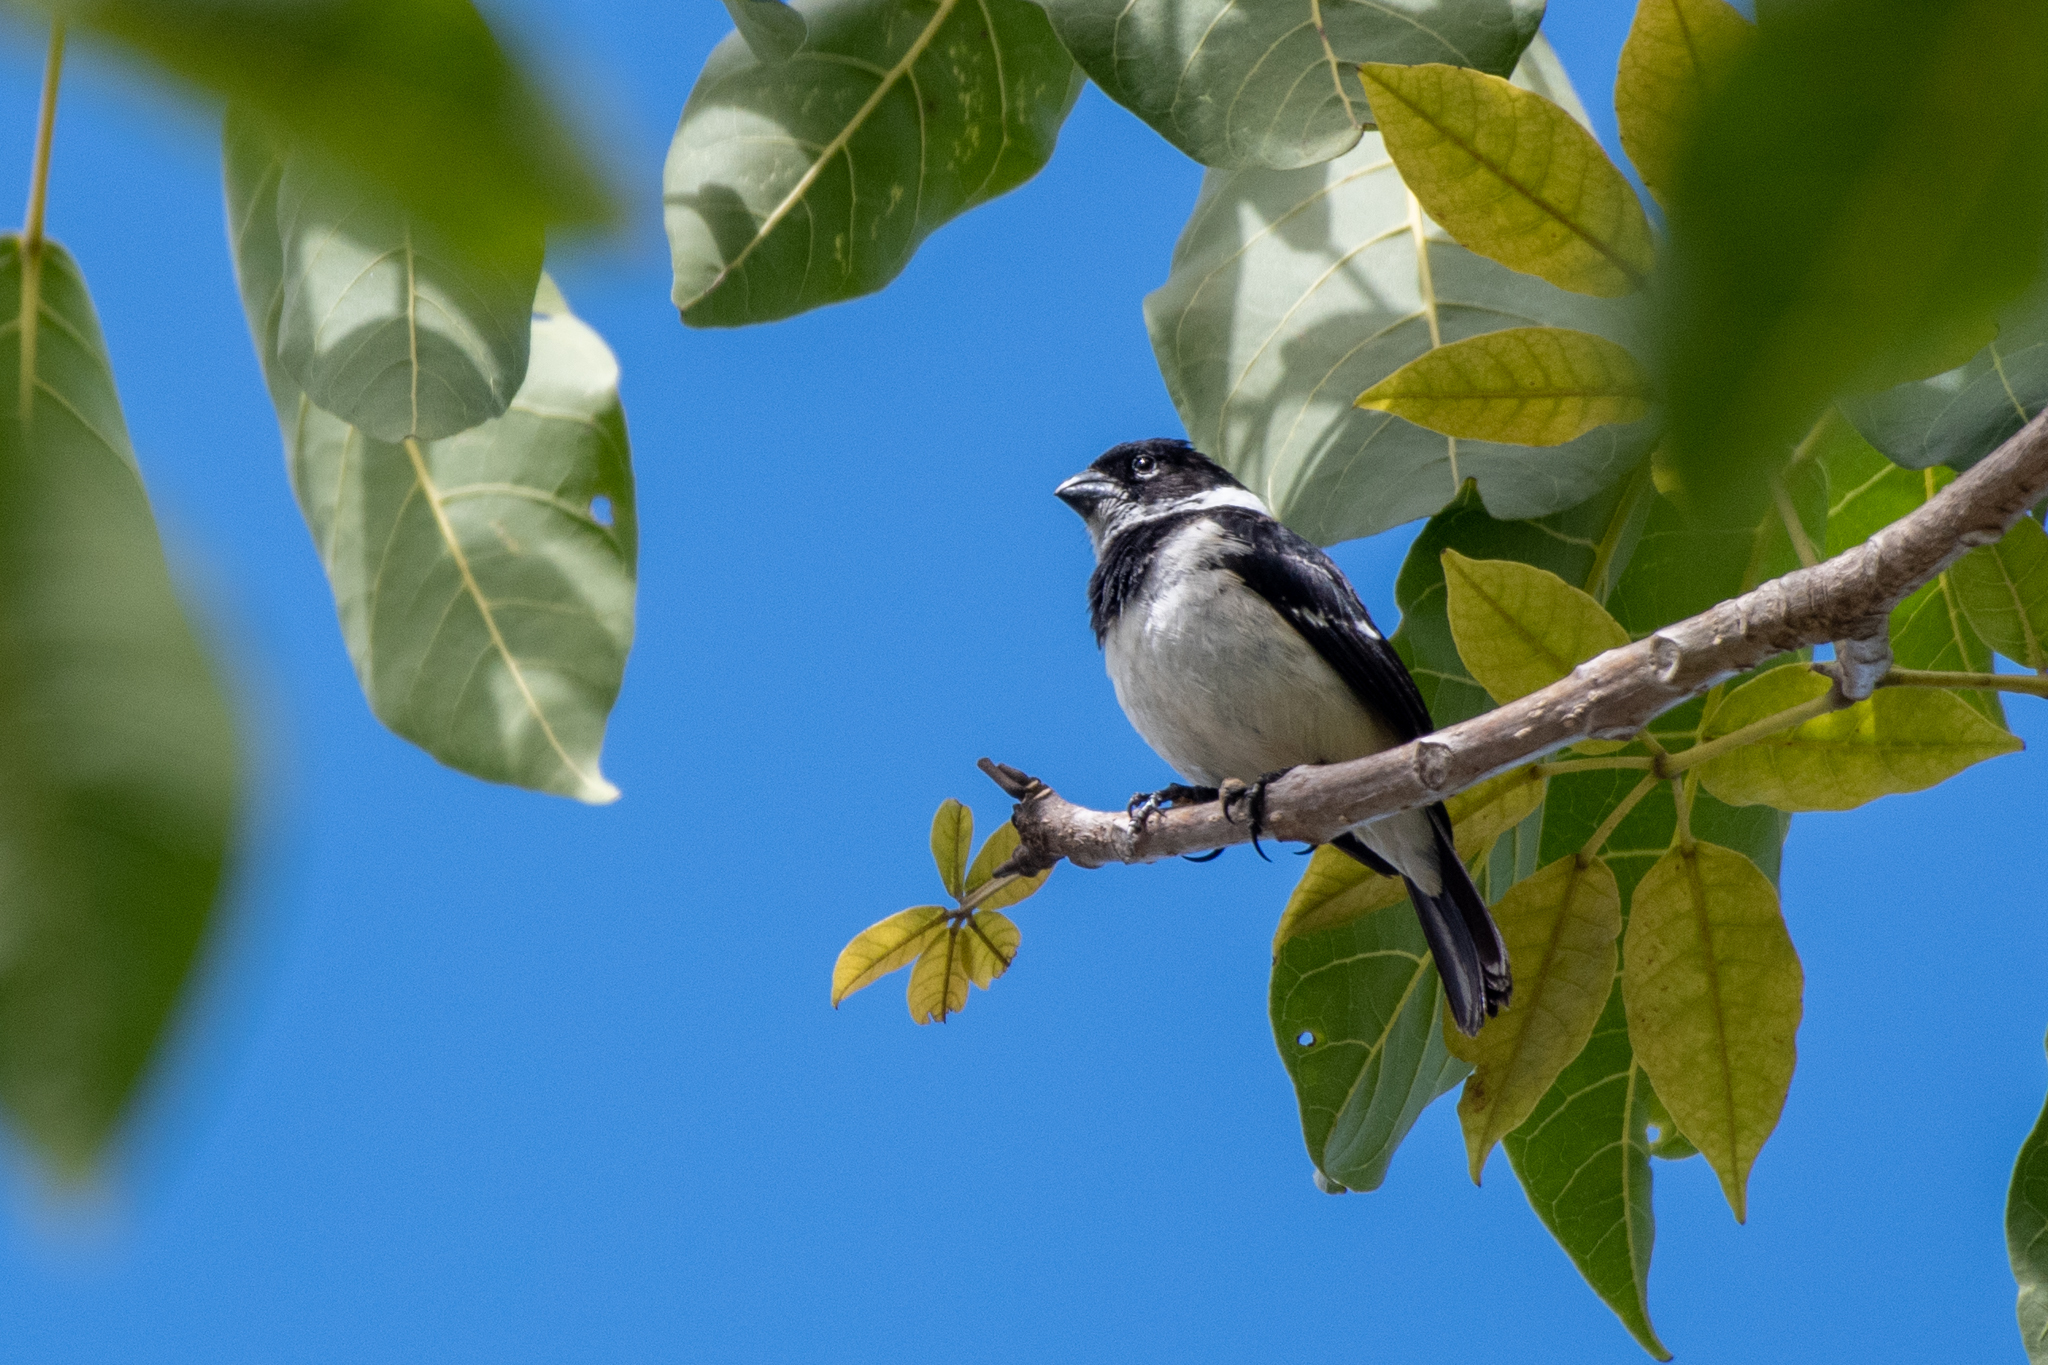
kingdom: Animalia
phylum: Chordata
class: Aves
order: Passeriformes
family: Thraupidae
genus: Sporophila
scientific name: Sporophila morelleti
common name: Morelet's seedeater
